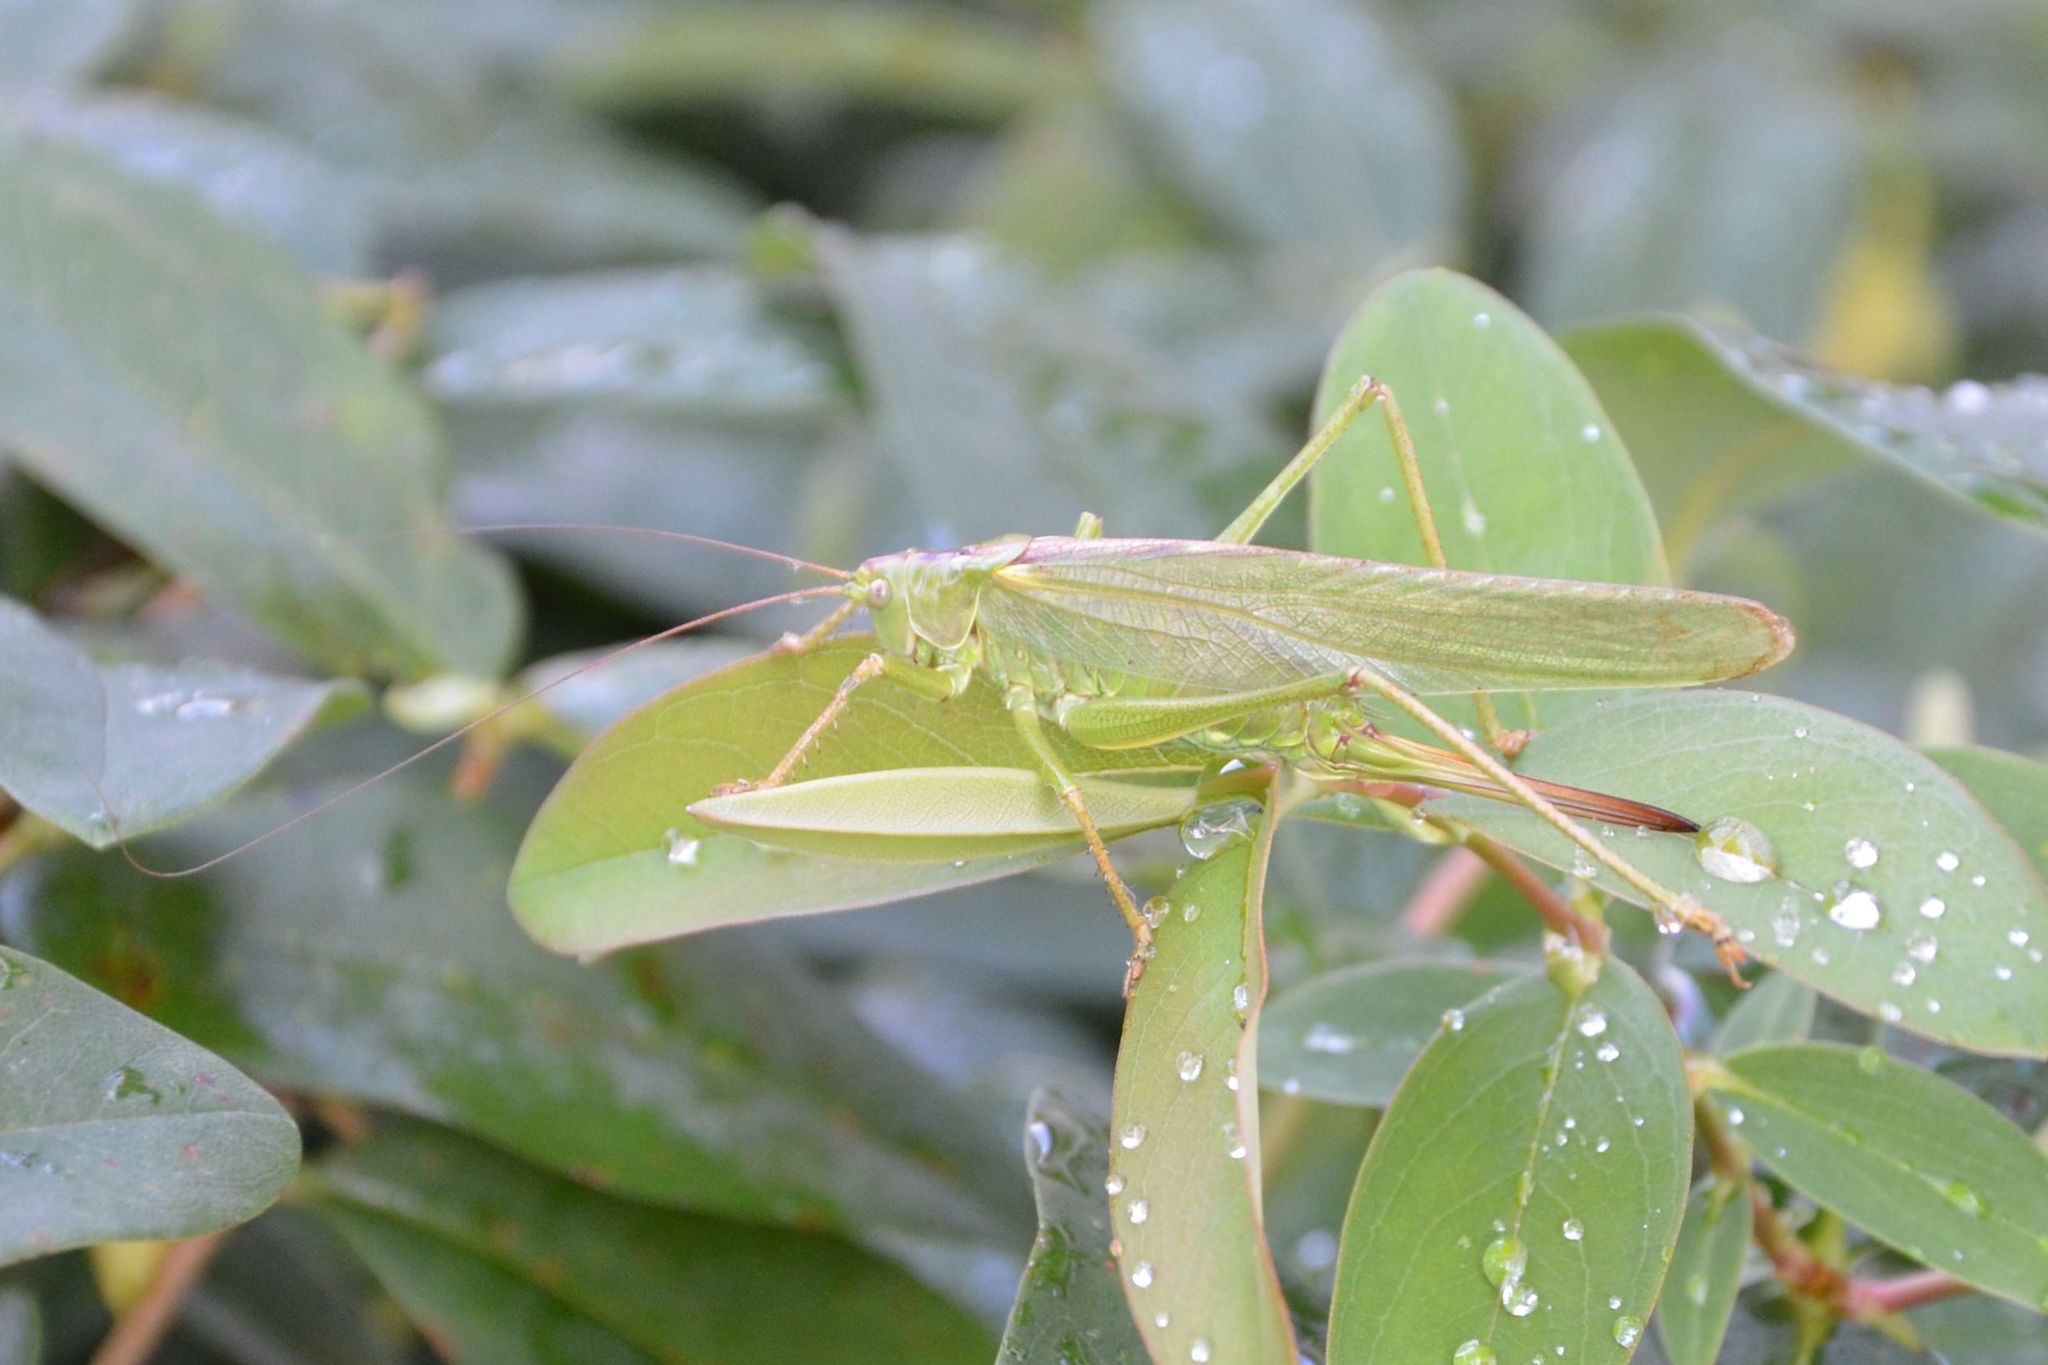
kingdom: Animalia
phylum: Arthropoda
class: Insecta
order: Orthoptera
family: Tettigoniidae
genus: Tettigonia
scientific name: Tettigonia viridissima
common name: Great green bush-cricket
